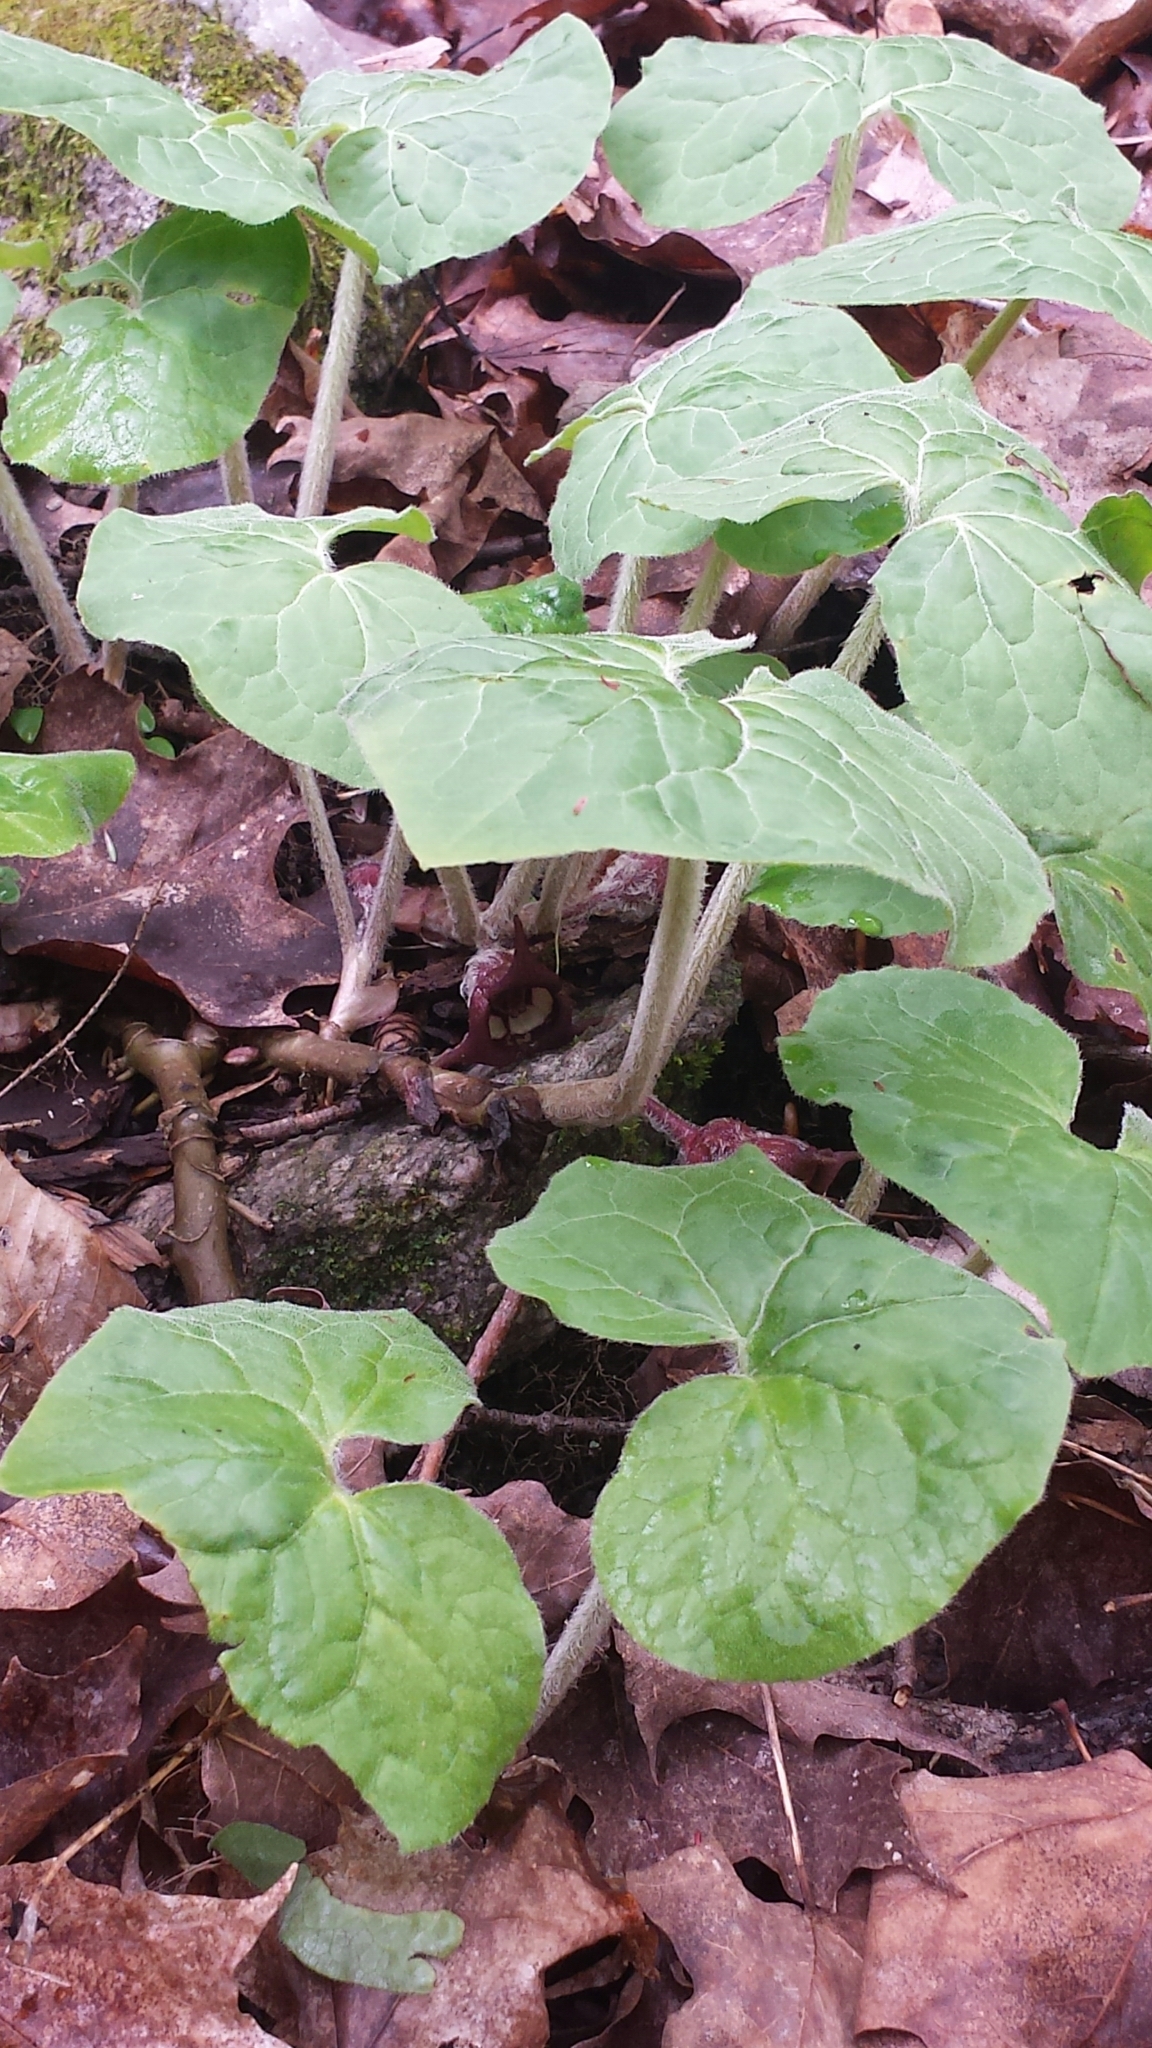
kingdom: Plantae
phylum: Tracheophyta
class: Magnoliopsida
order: Piperales
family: Aristolochiaceae
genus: Asarum
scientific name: Asarum canadense
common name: Wild ginger
